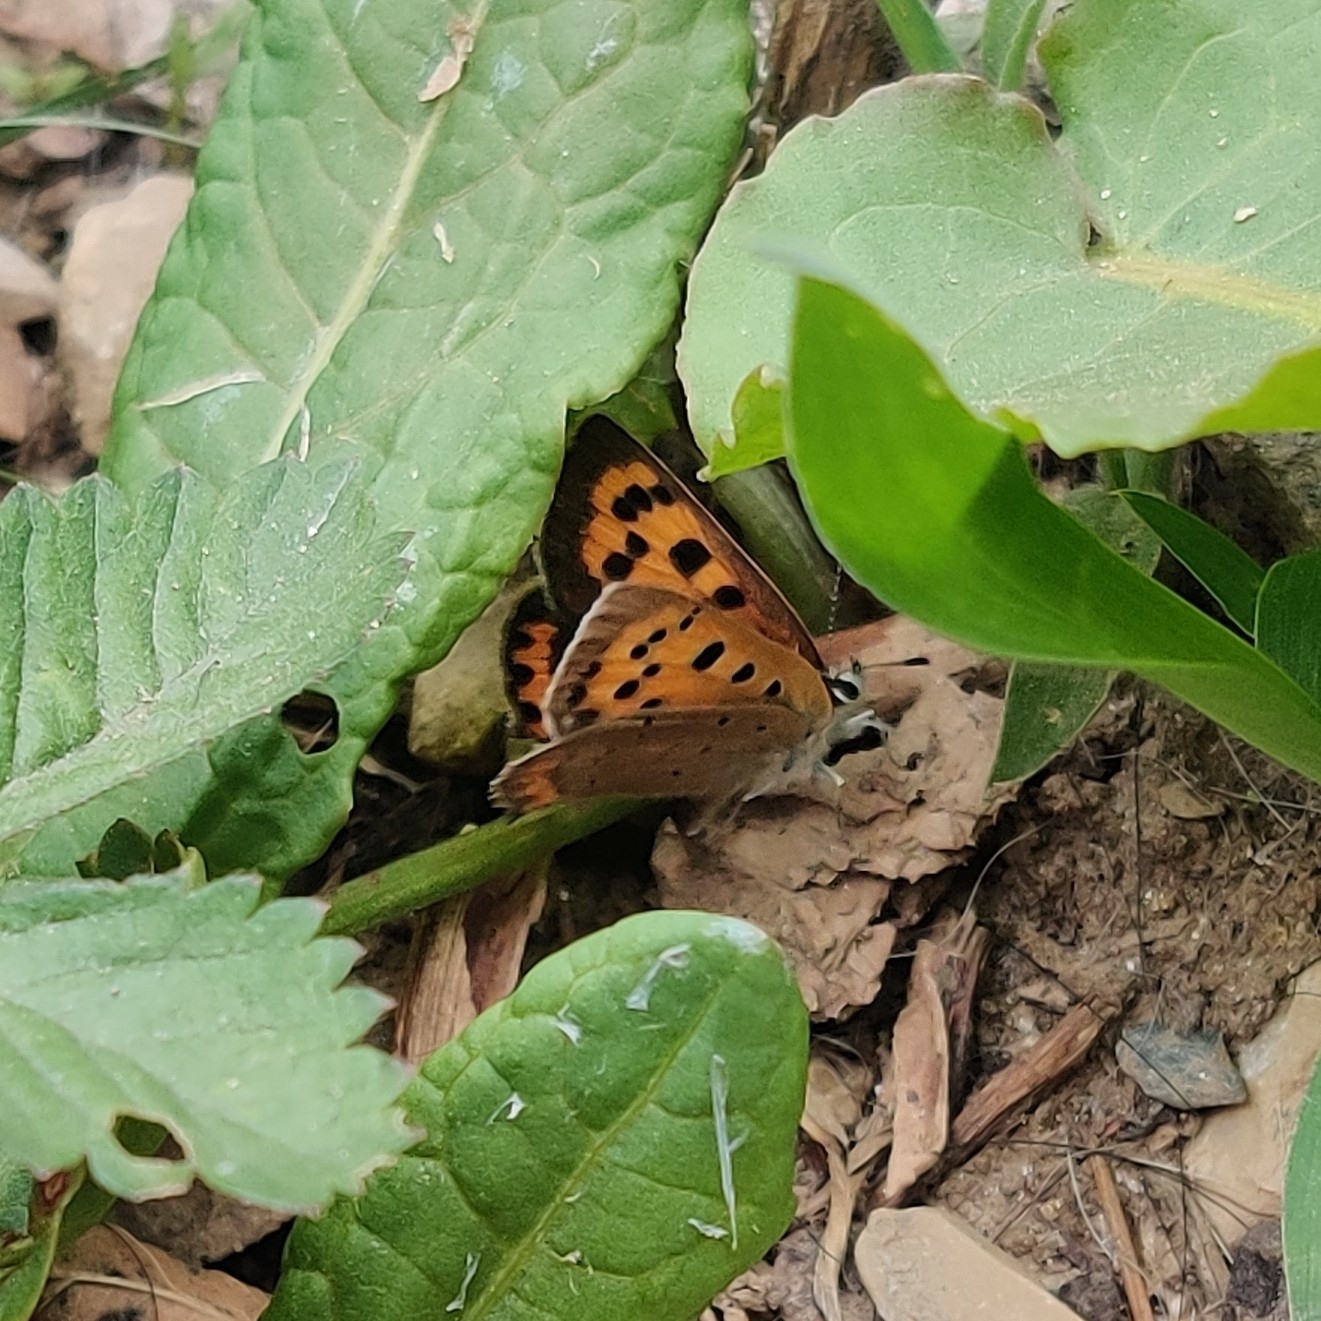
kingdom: Animalia
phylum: Arthropoda
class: Insecta
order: Lepidoptera
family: Lycaenidae
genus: Lycaena
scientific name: Lycaena phlaeas
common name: Small copper
